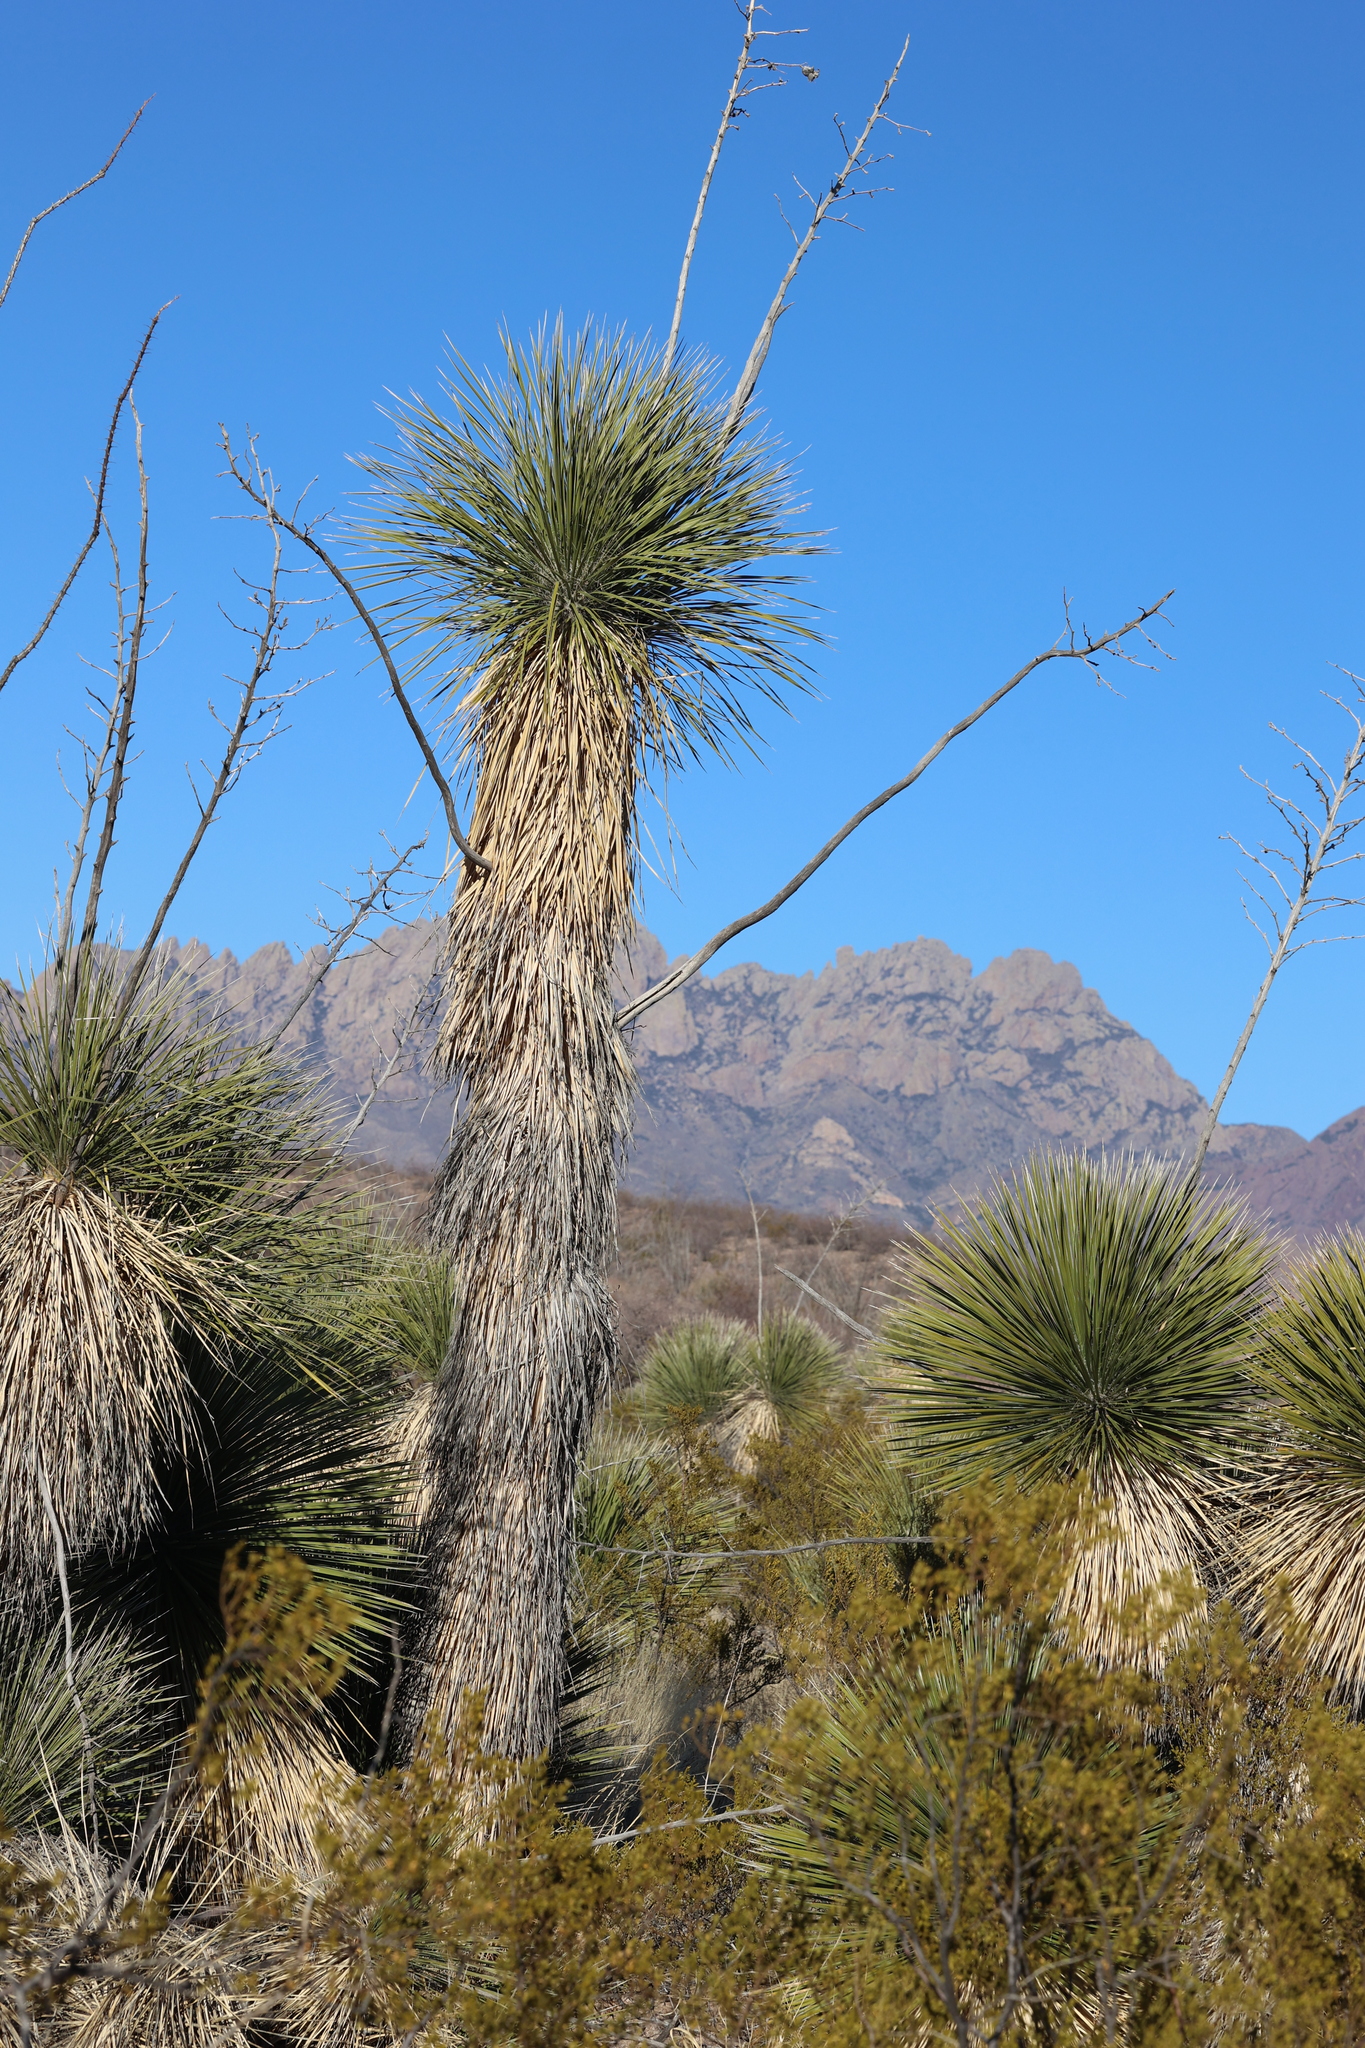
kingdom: Plantae
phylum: Tracheophyta
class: Liliopsida
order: Asparagales
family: Asparagaceae
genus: Yucca
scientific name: Yucca elata
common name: Palmella
